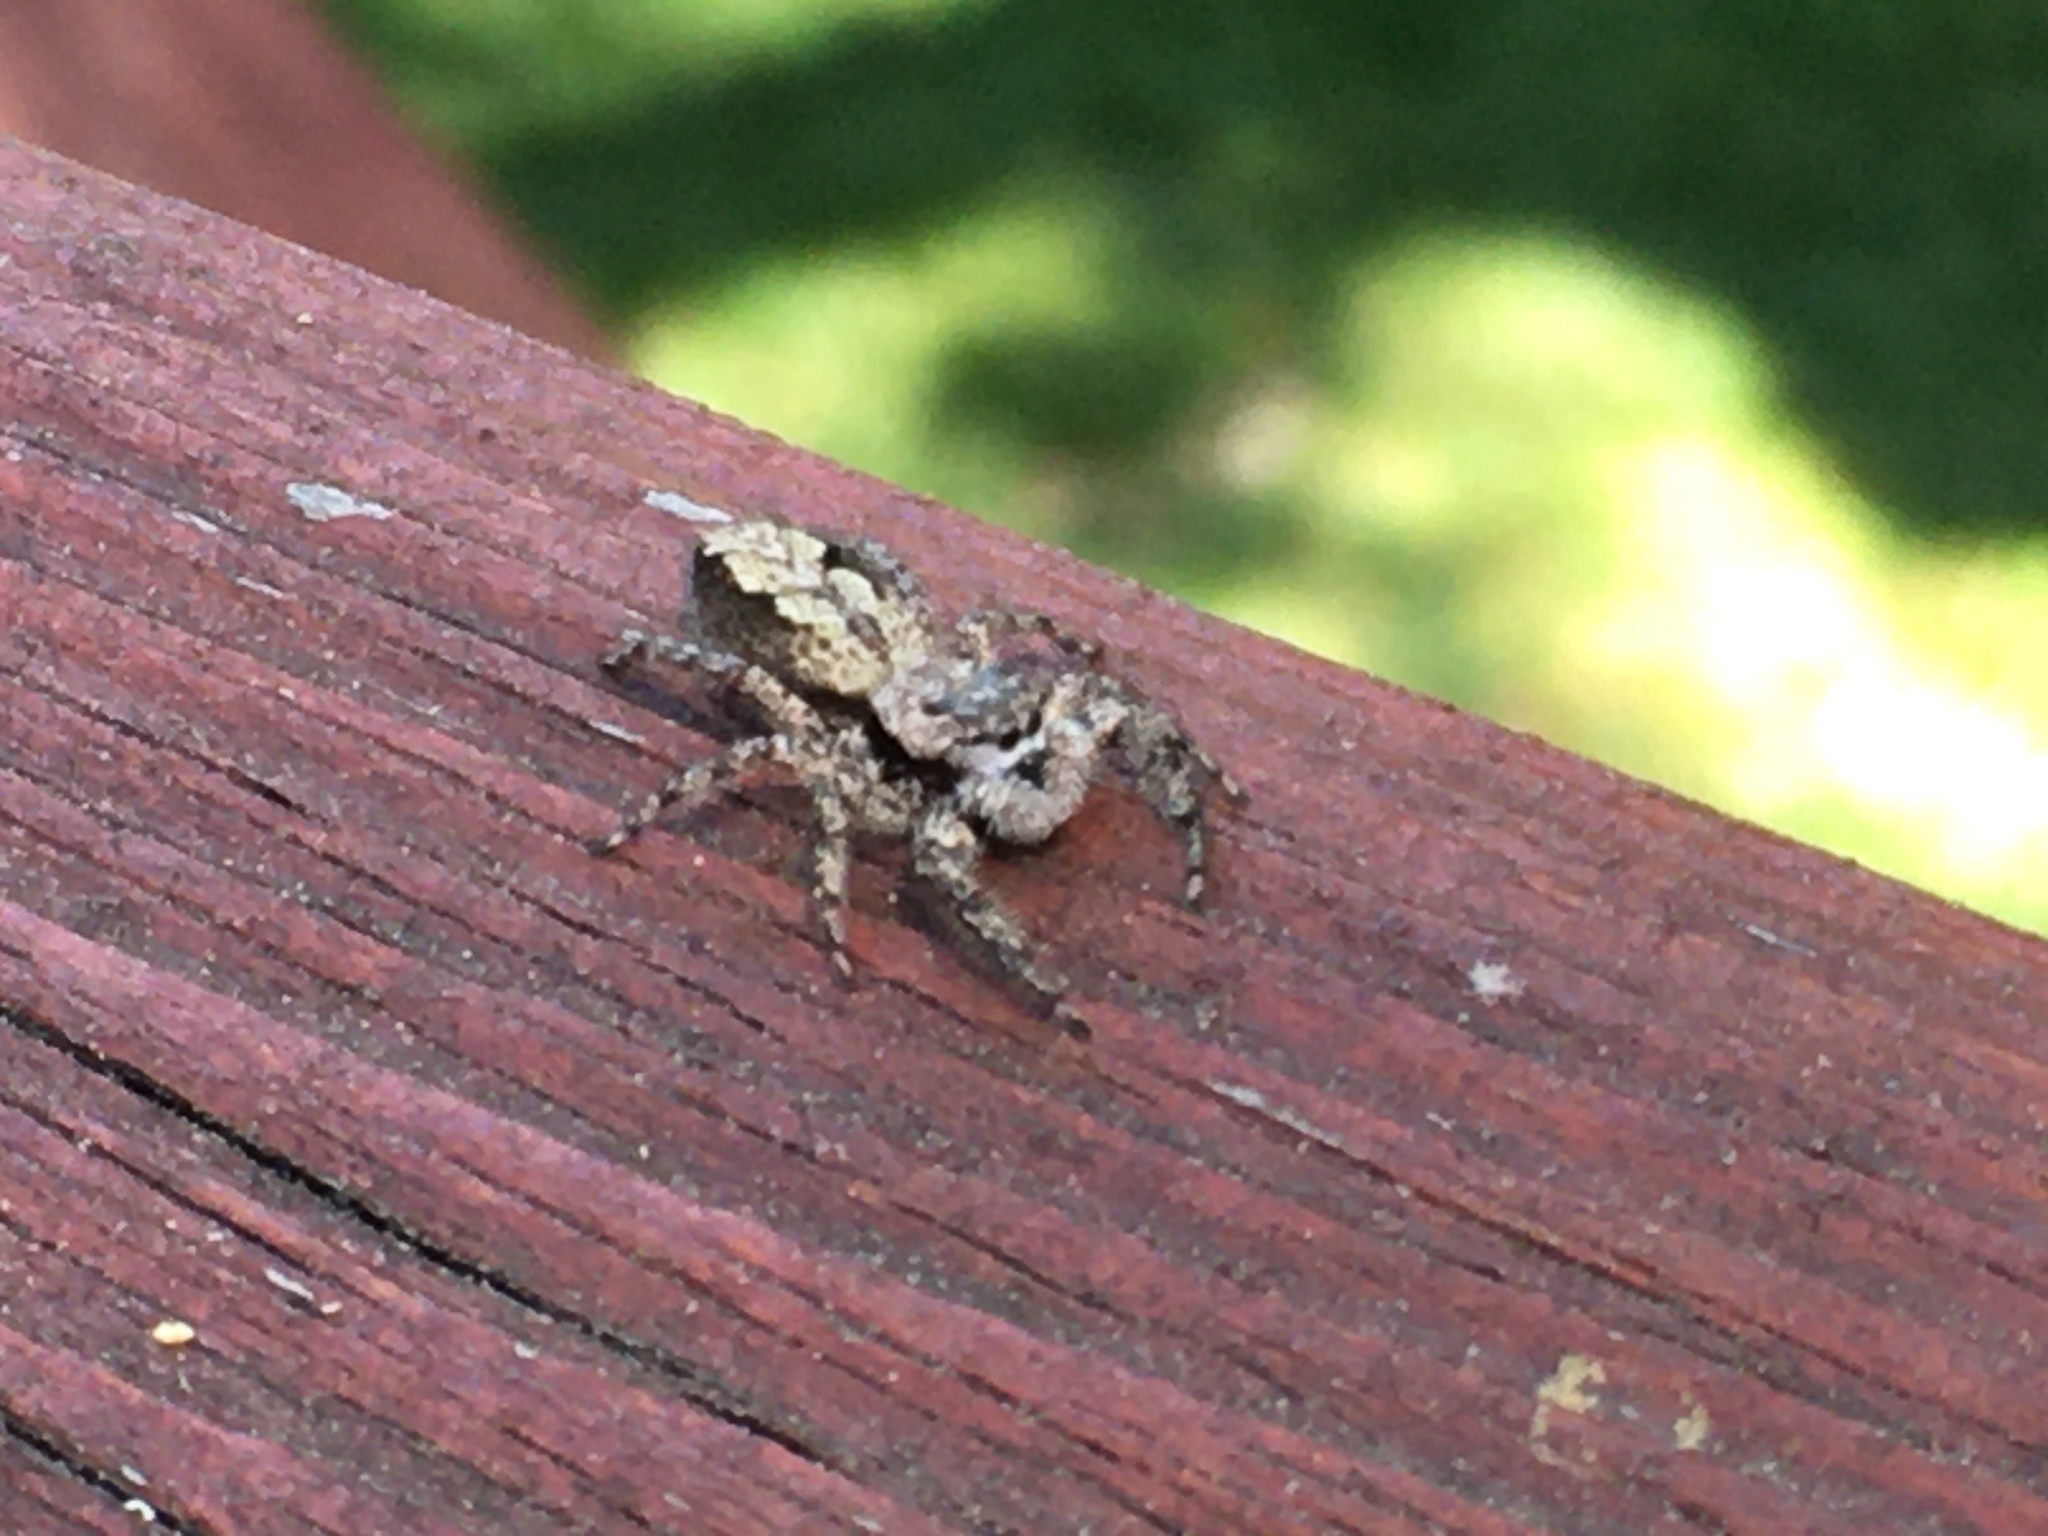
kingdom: Animalia
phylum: Arthropoda
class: Arachnida
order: Araneae
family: Salticidae
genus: Platycryptus
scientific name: Platycryptus undatus
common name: Tan jumping spider
